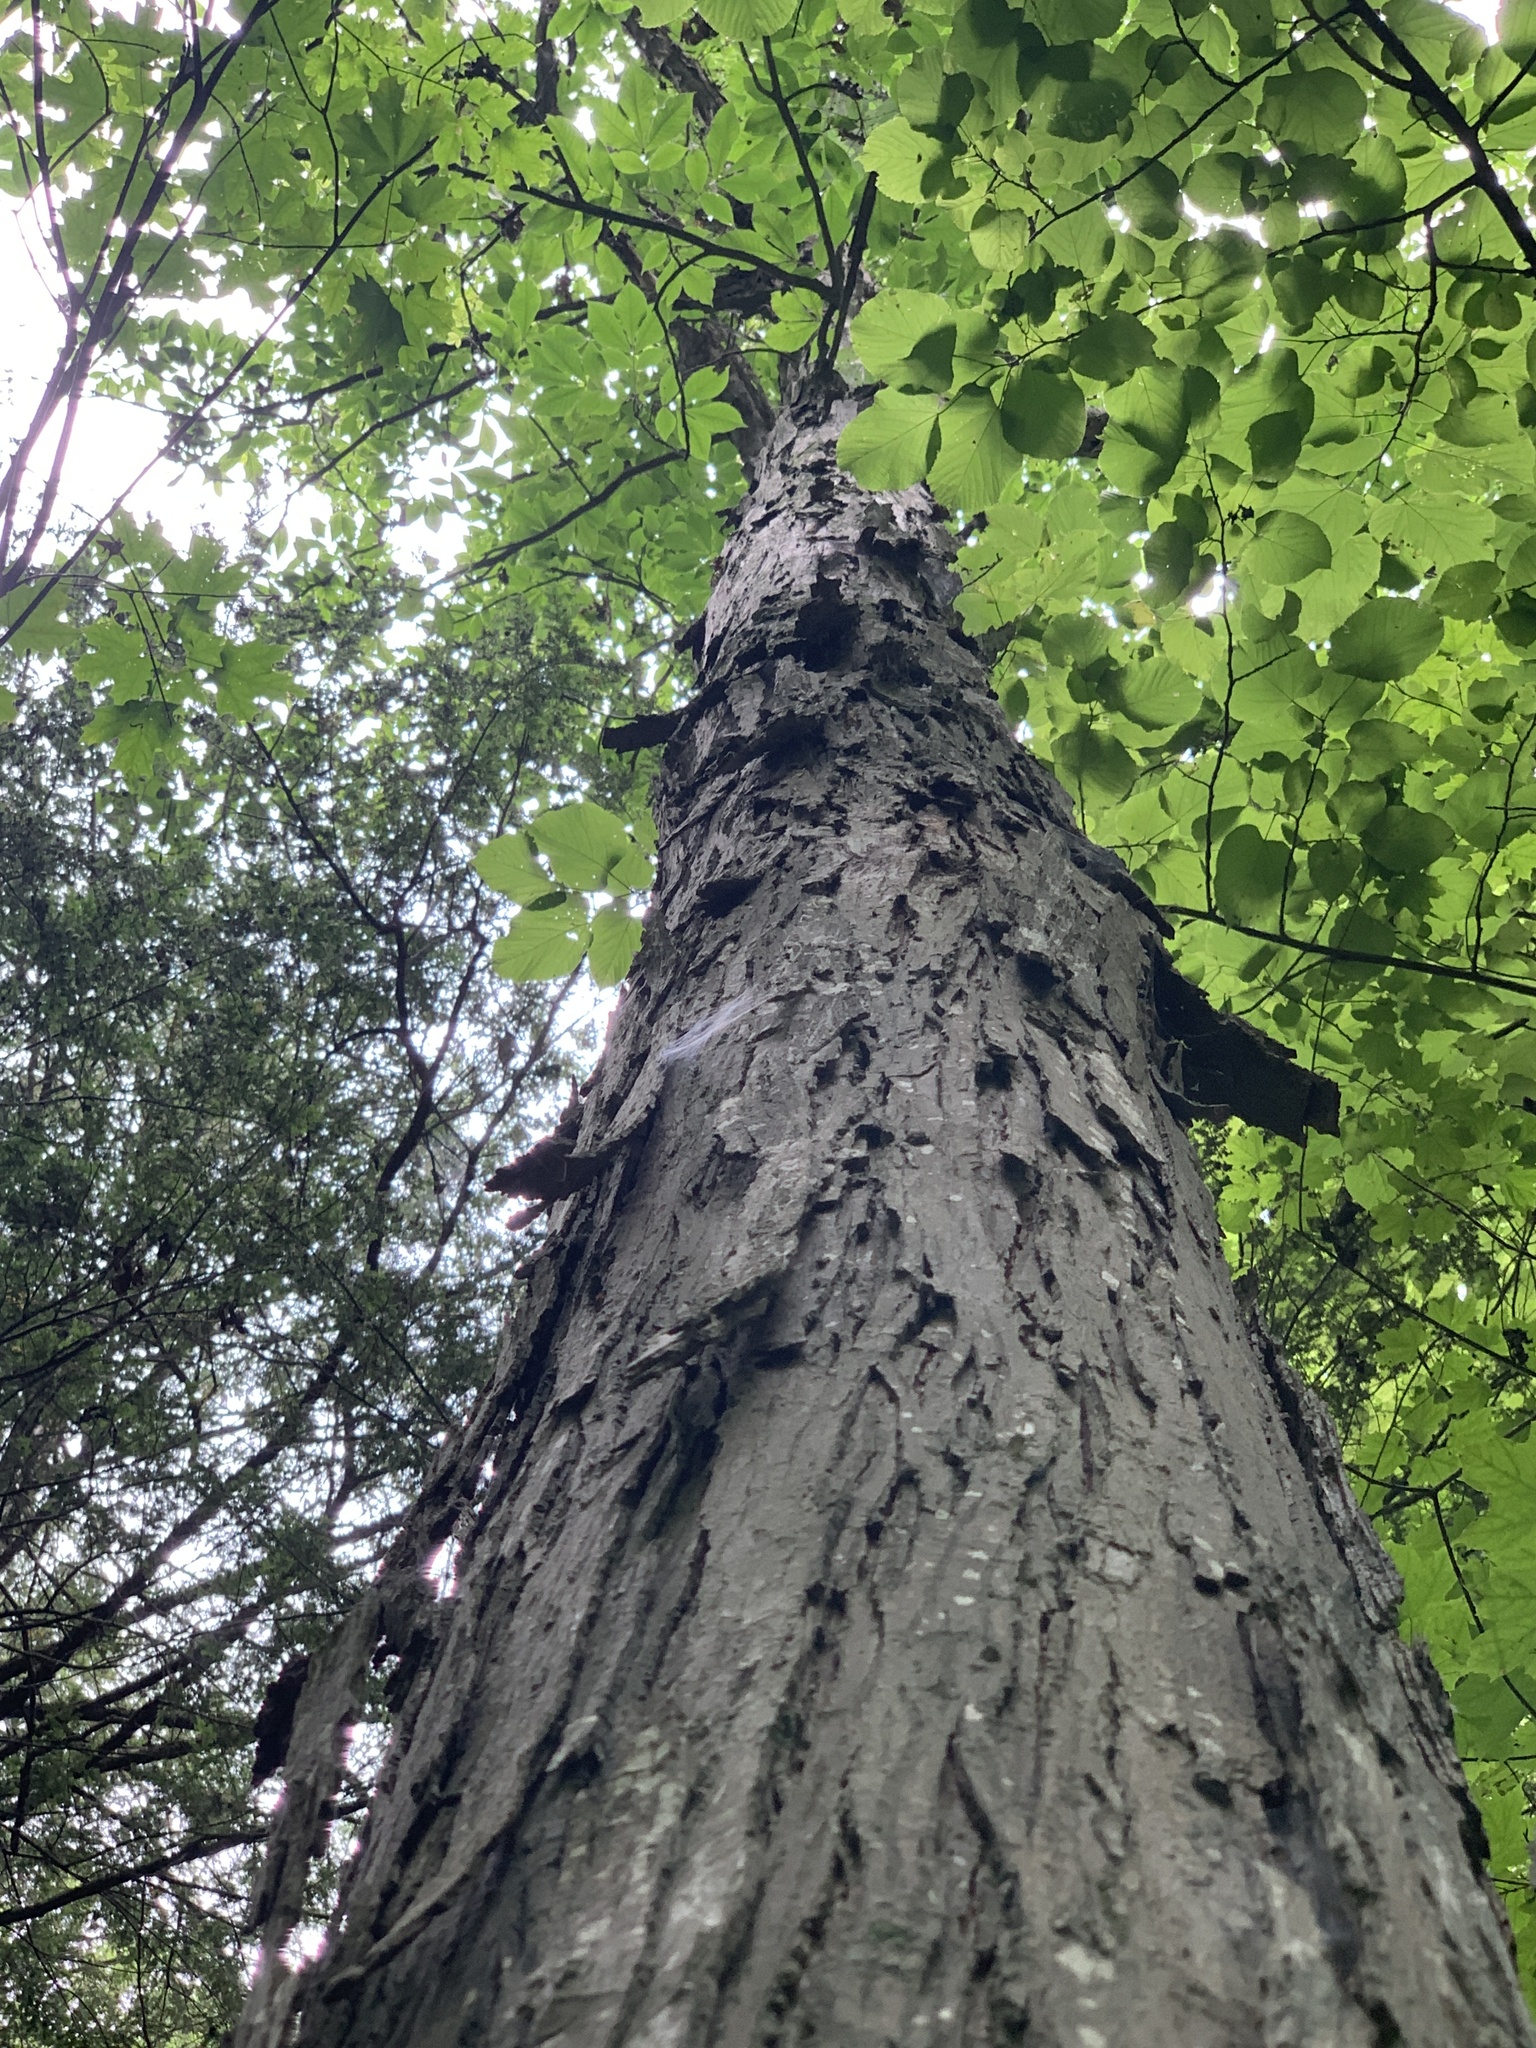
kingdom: Plantae
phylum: Tracheophyta
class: Magnoliopsida
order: Fagales
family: Juglandaceae
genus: Carya
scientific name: Carya ovata
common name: Shagbark hickory
